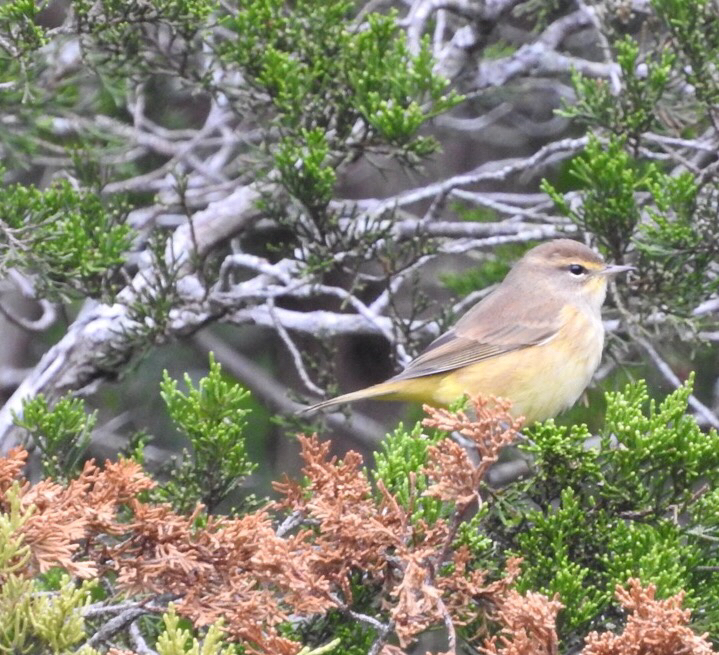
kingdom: Animalia
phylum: Chordata
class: Aves
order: Passeriformes
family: Parulidae
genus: Setophaga
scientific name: Setophaga palmarum
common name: Palm warbler
